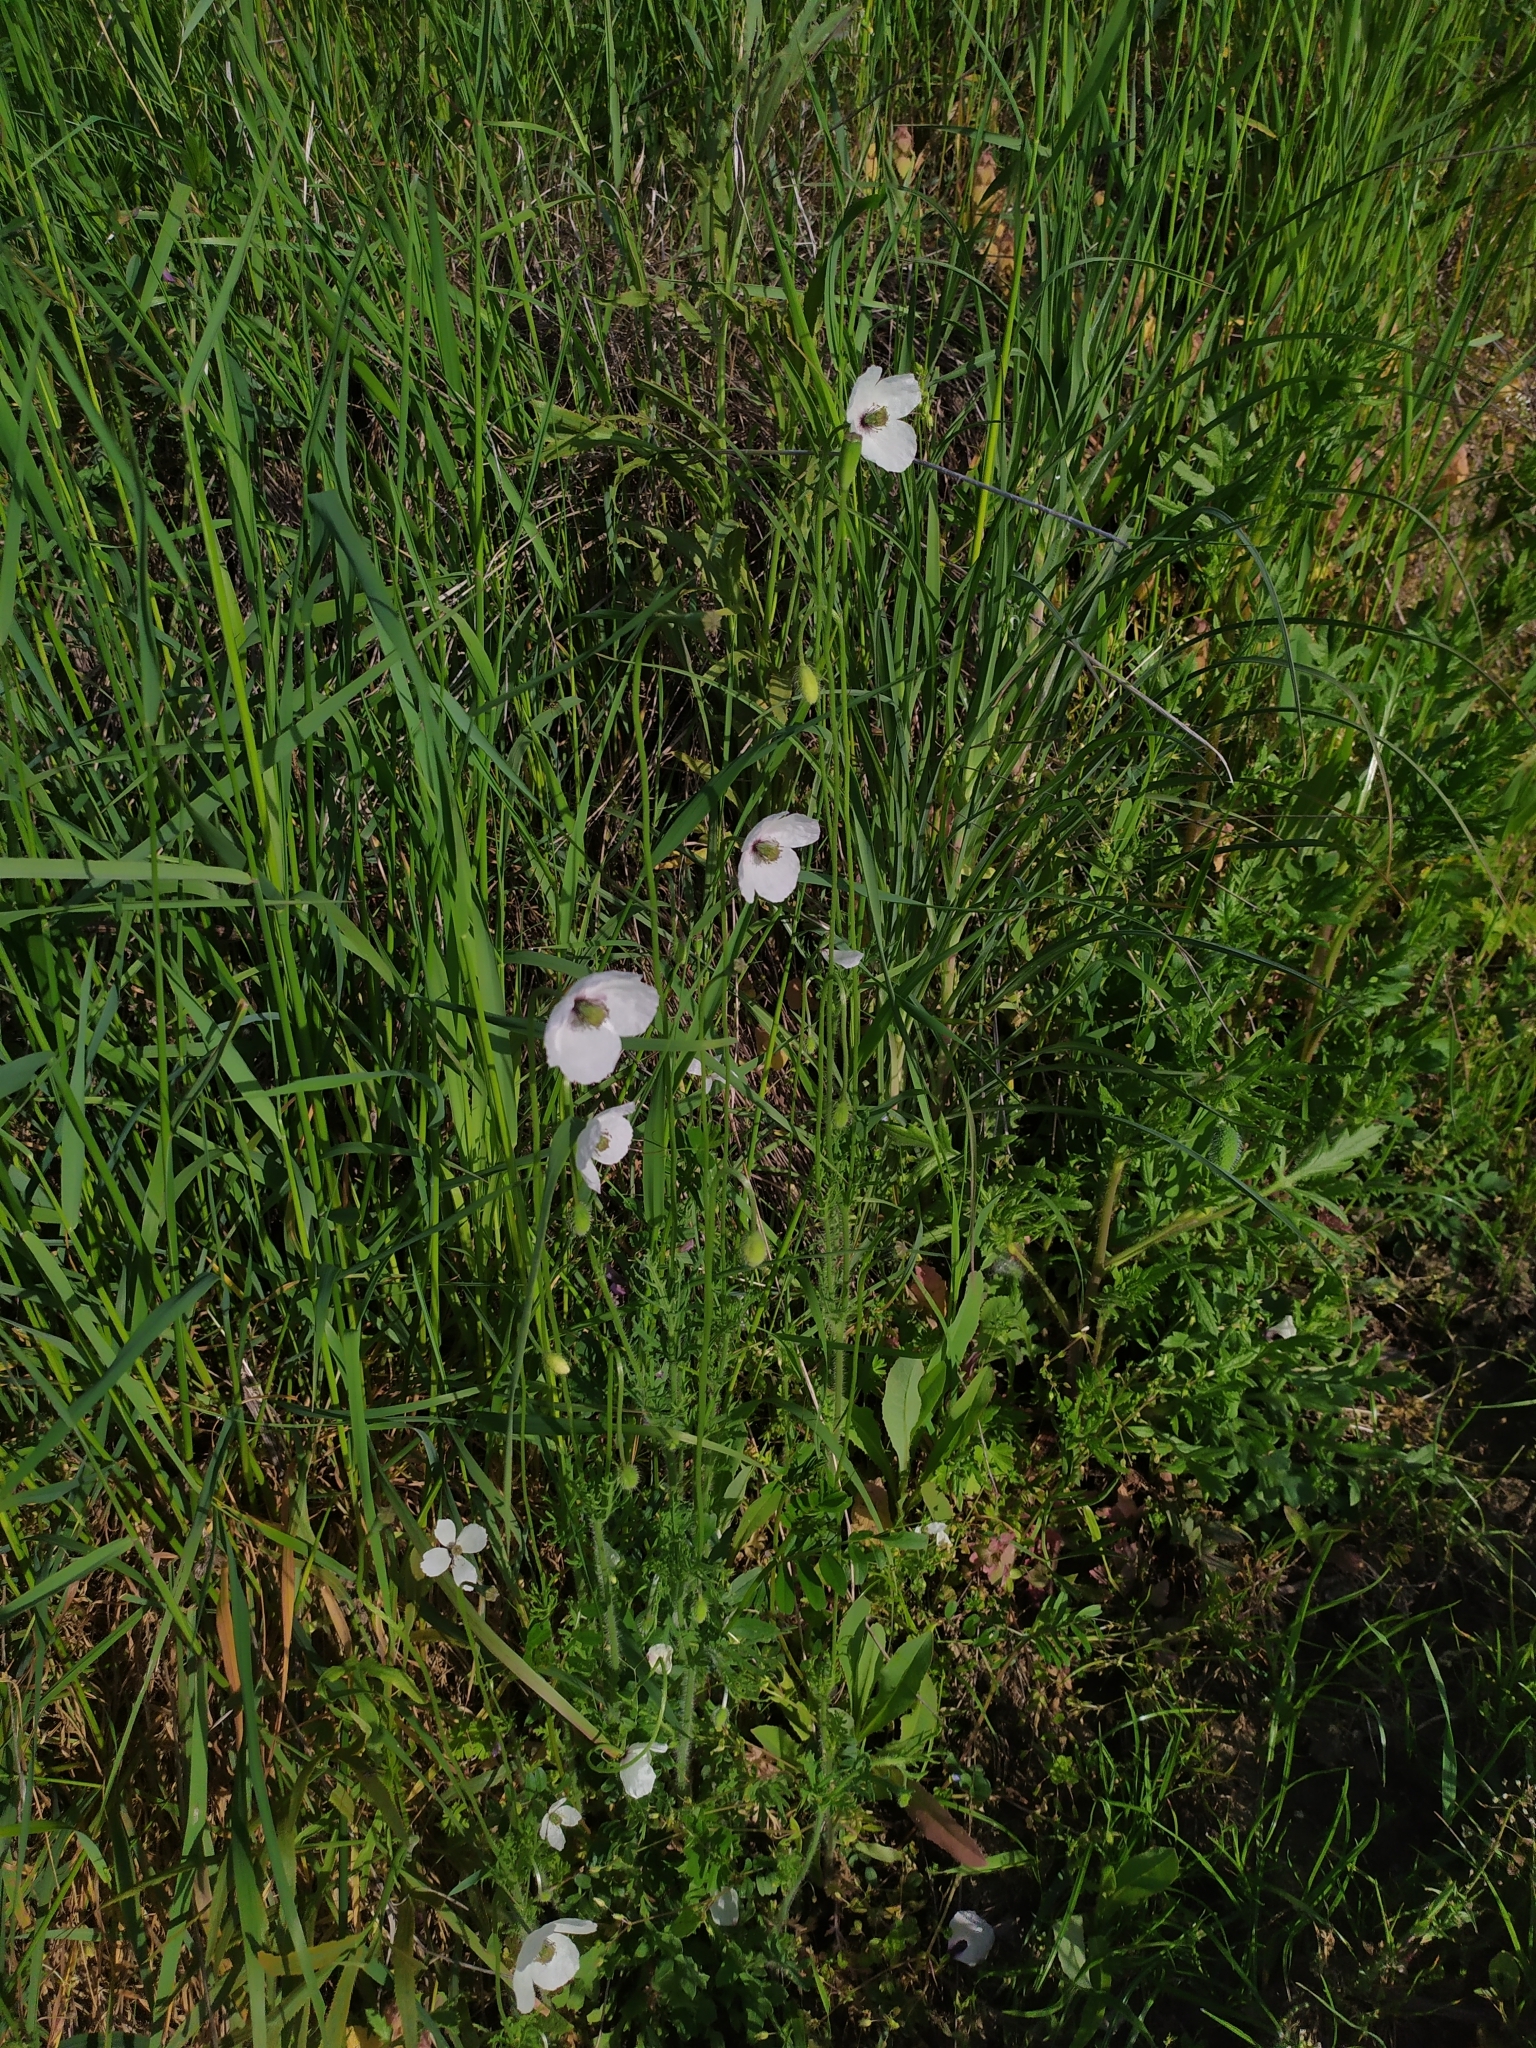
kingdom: Plantae
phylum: Tracheophyta
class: Magnoliopsida
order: Ranunculales
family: Papaveraceae
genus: Papaver
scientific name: Papaver dubium
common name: Long-headed poppy
